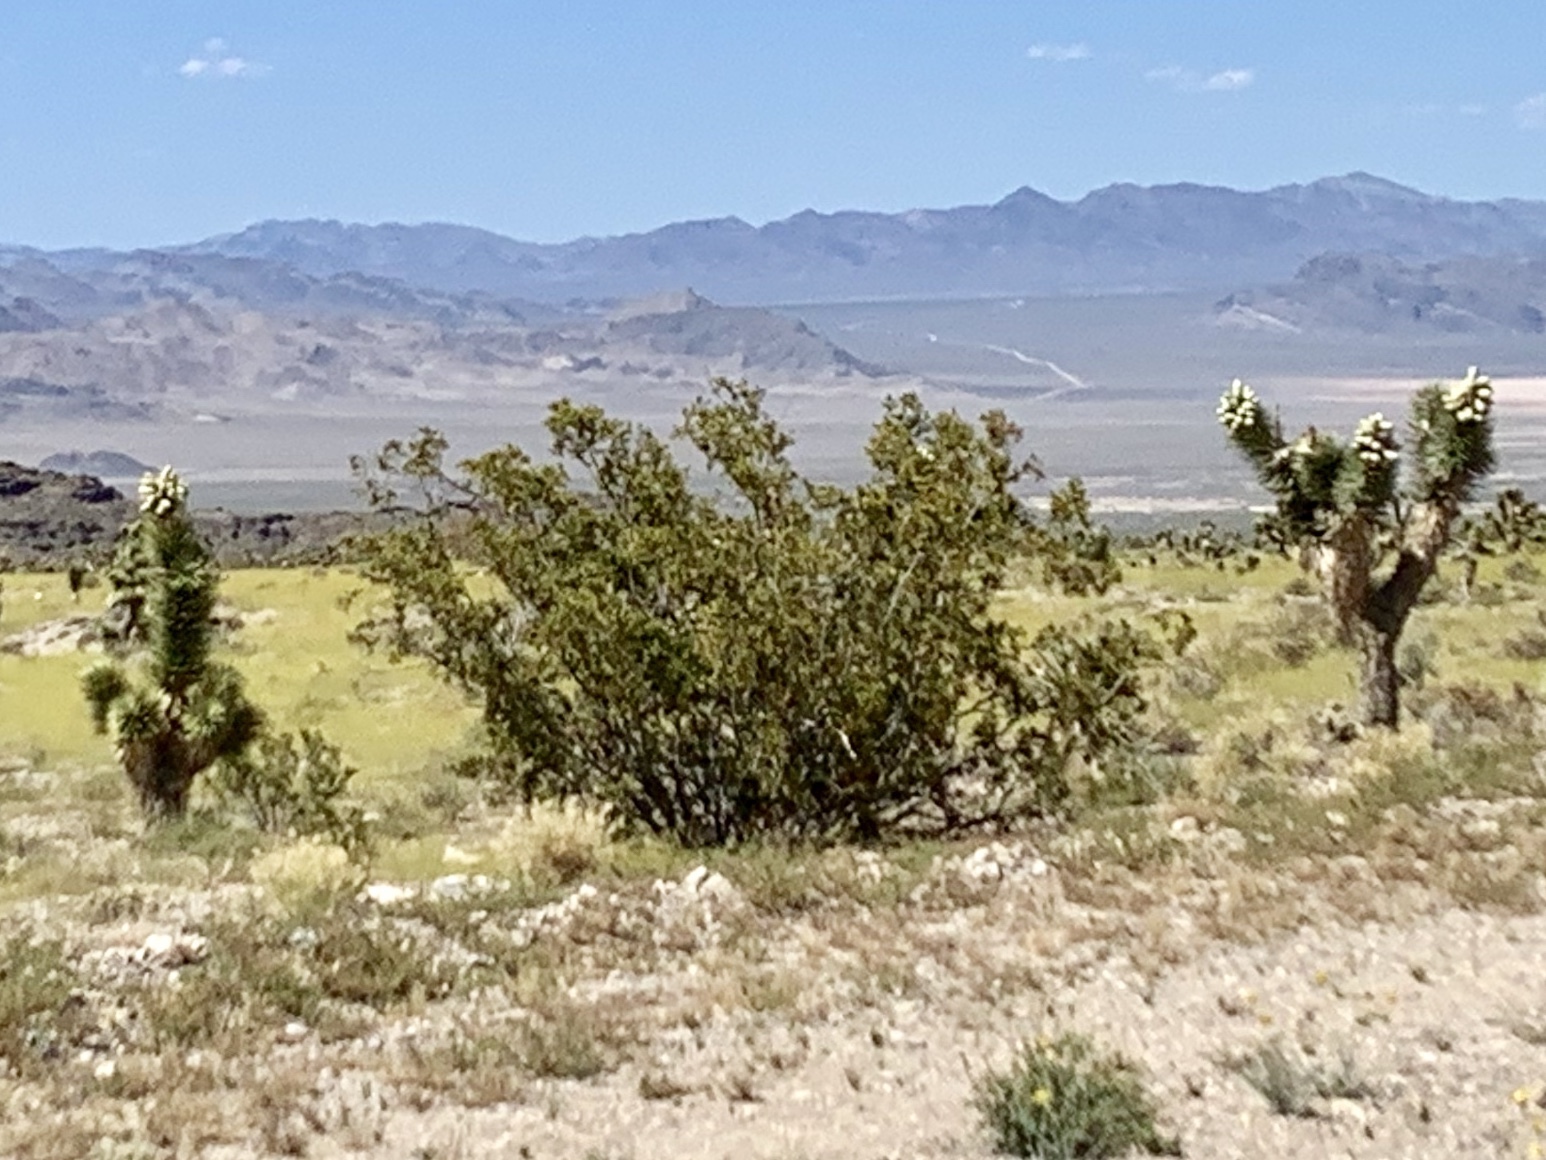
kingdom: Plantae
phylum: Tracheophyta
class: Magnoliopsida
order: Zygophyllales
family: Zygophyllaceae
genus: Larrea
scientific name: Larrea tridentata
